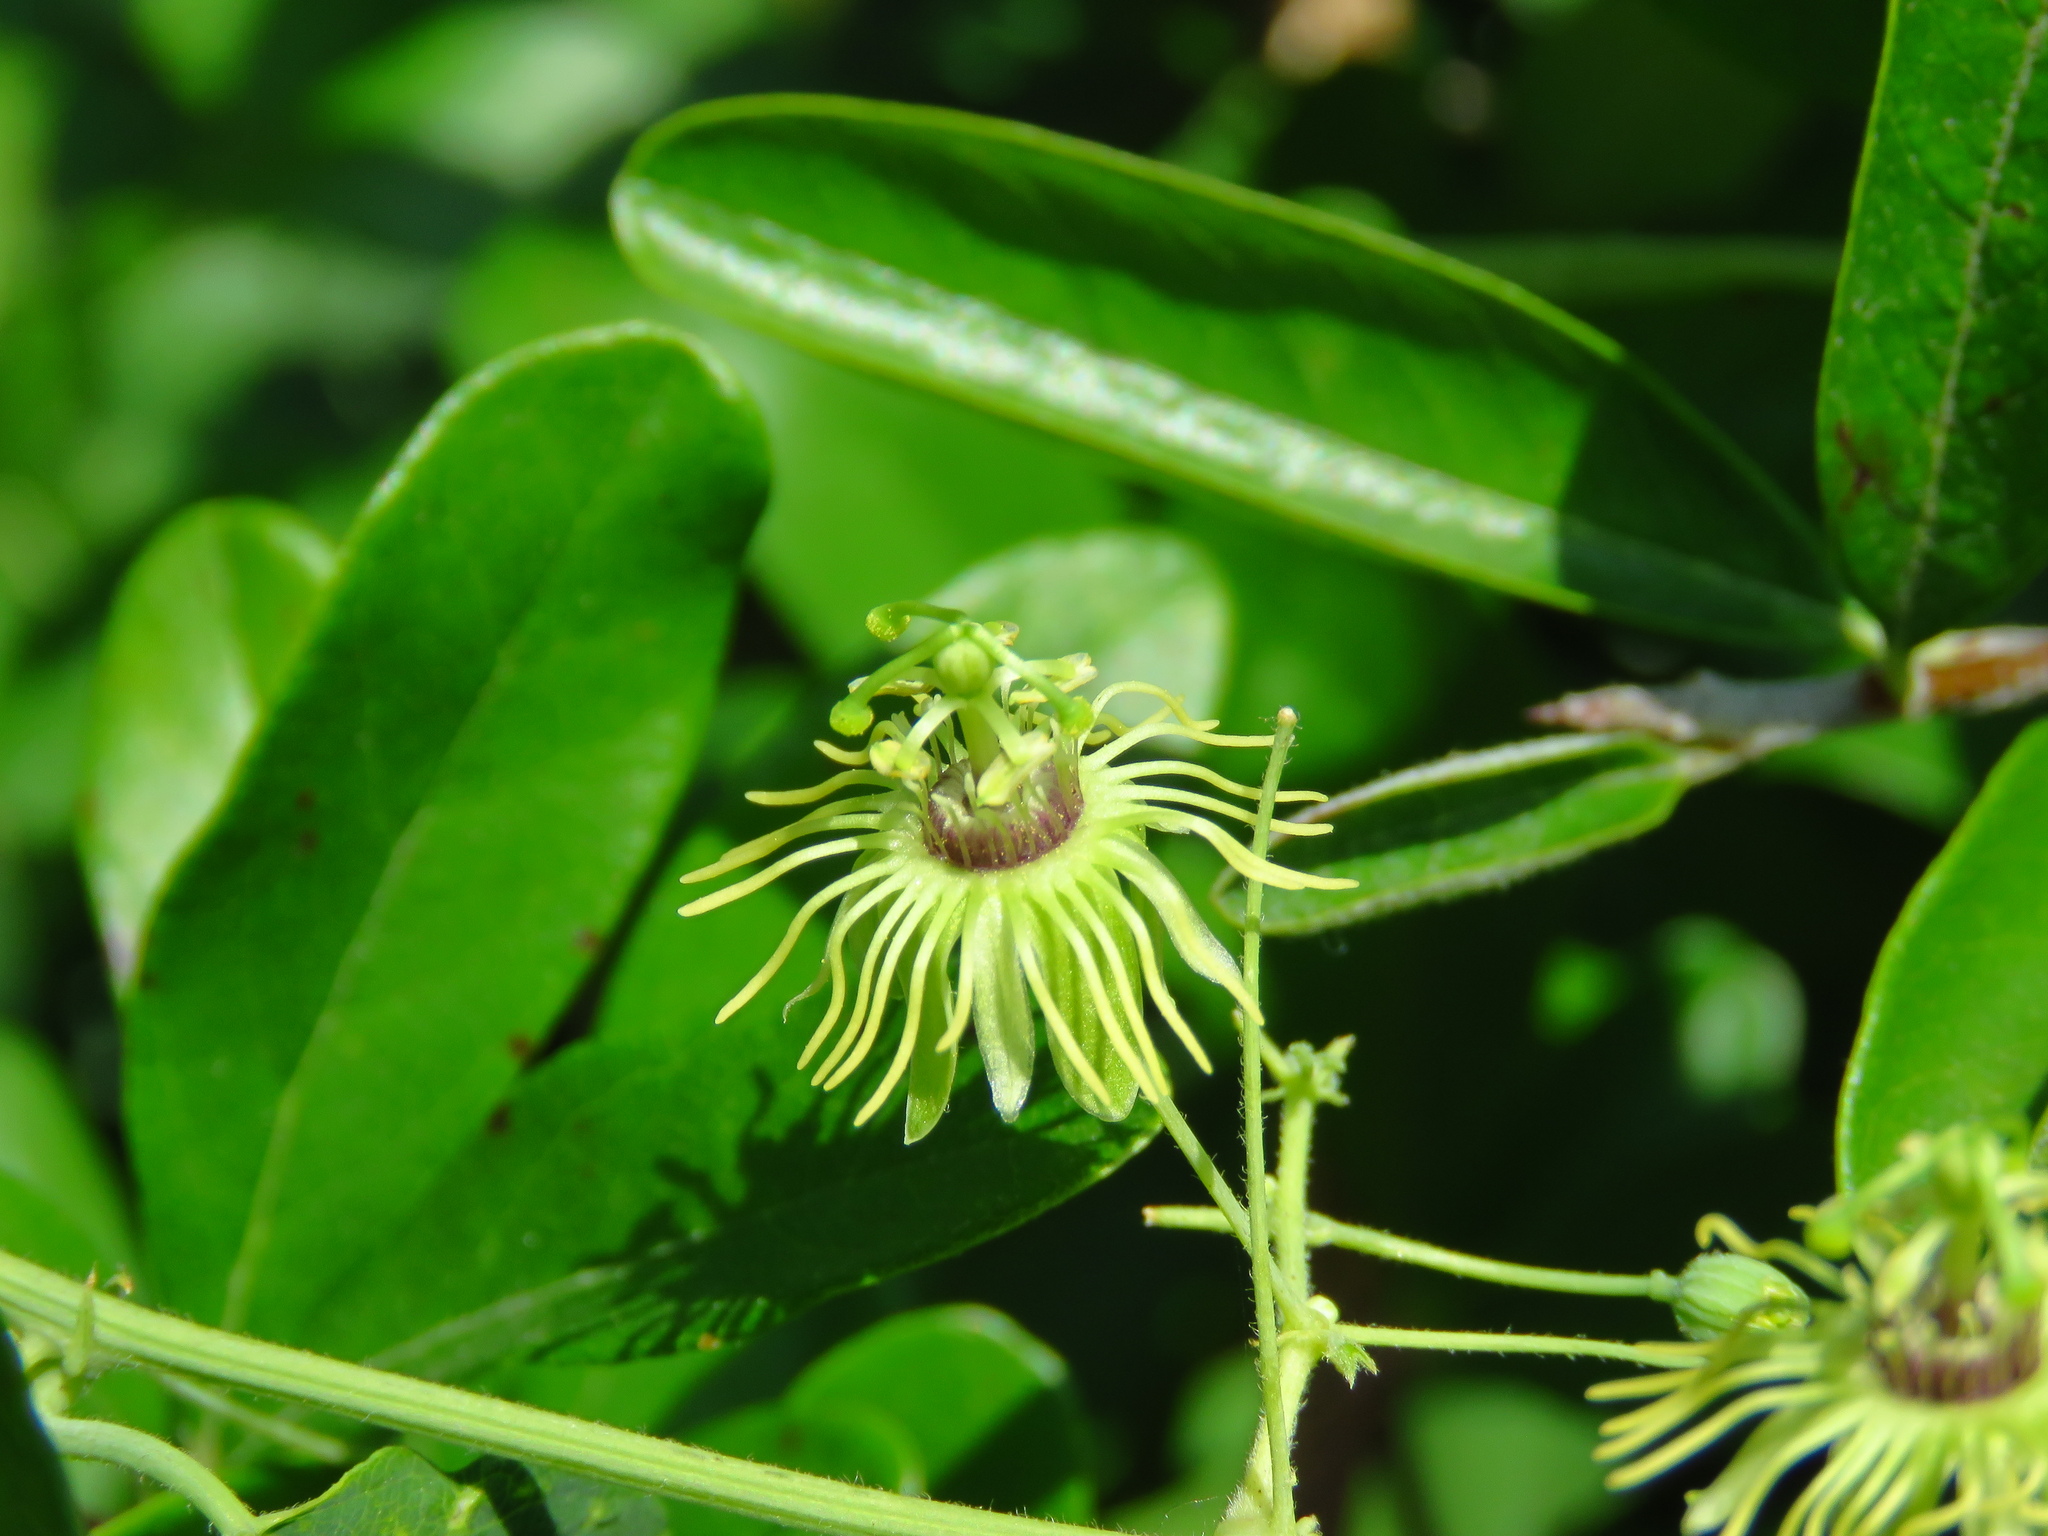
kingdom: Plantae
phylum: Tracheophyta
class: Magnoliopsida
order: Malpighiales
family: Passifloraceae
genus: Passiflora
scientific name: Passiflora lutea
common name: Yellow passionflower
